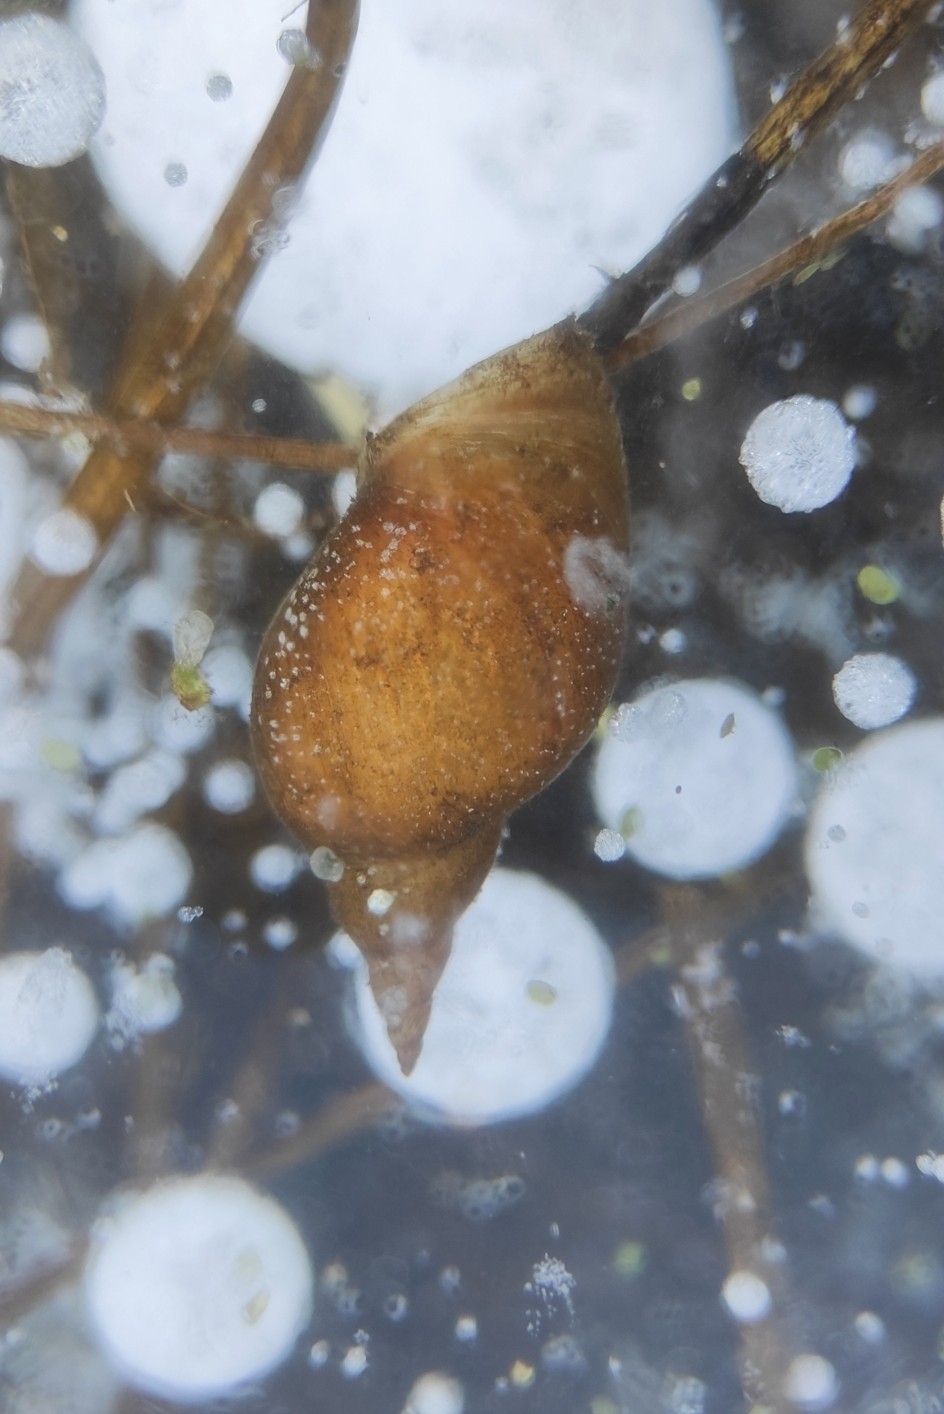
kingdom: Animalia
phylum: Mollusca
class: Gastropoda
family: Lymnaeidae
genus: Lymnaea
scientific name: Lymnaea stagnalis
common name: Great pond snail
